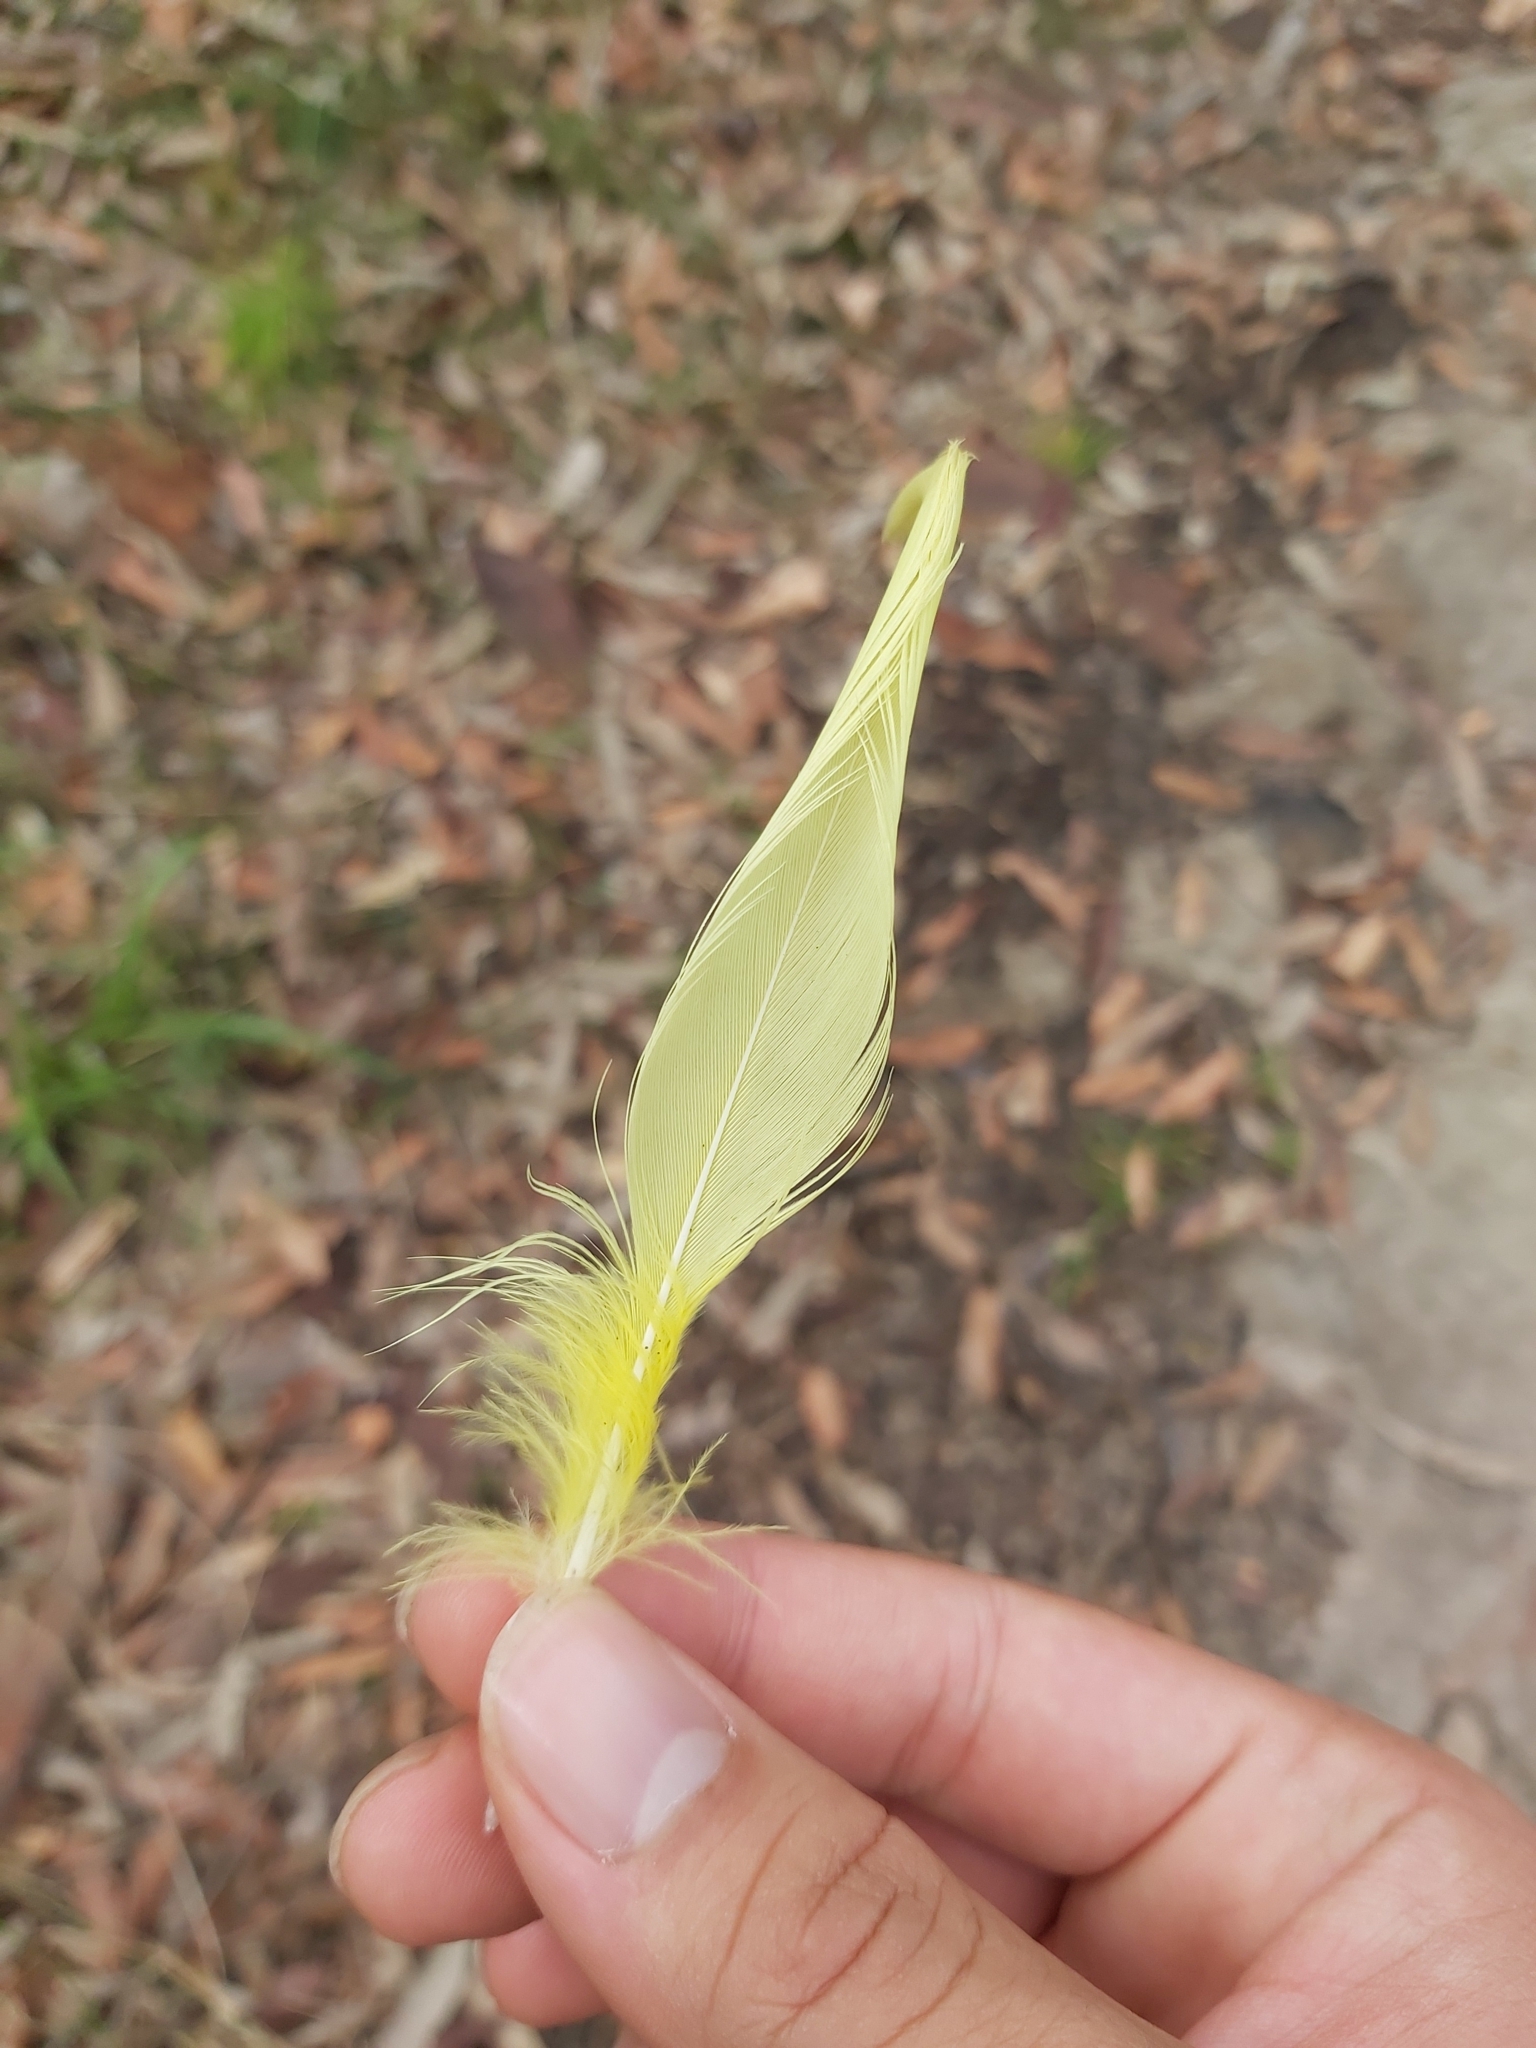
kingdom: Animalia
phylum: Chordata
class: Aves
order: Psittaciformes
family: Psittacidae
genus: Cacatua
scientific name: Cacatua galerita
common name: Sulphur-crested cockatoo
